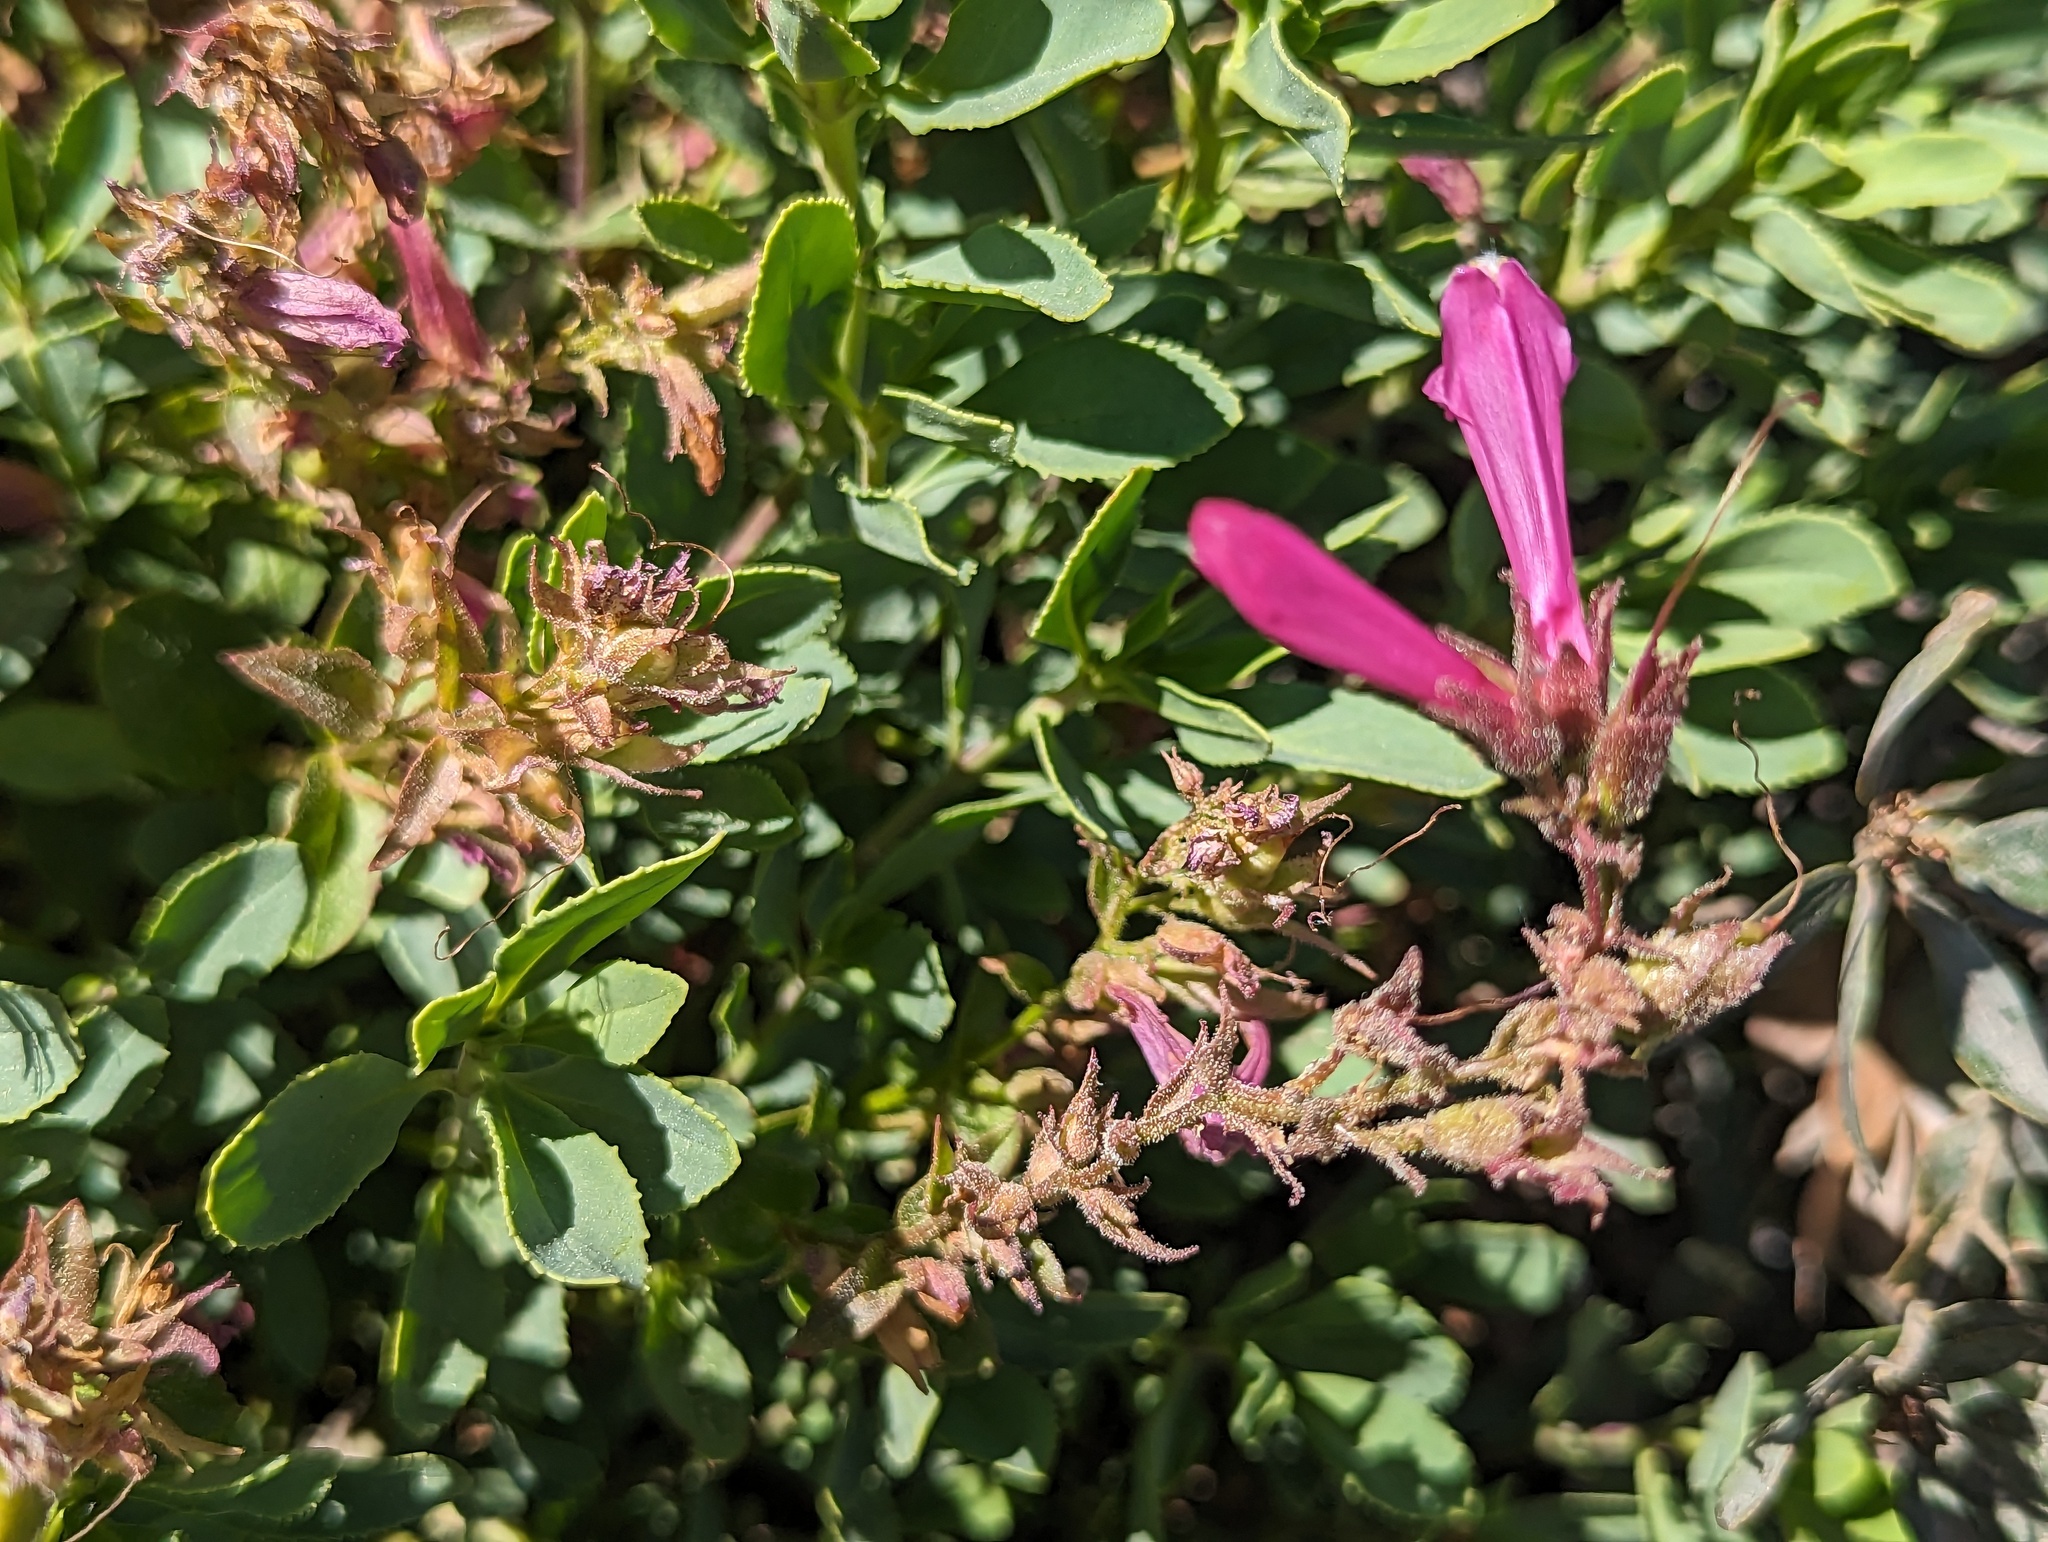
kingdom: Plantae
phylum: Tracheophyta
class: Magnoliopsida
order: Lamiales
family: Plantaginaceae
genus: Penstemon
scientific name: Penstemon newberryi
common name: Mountain-pride
